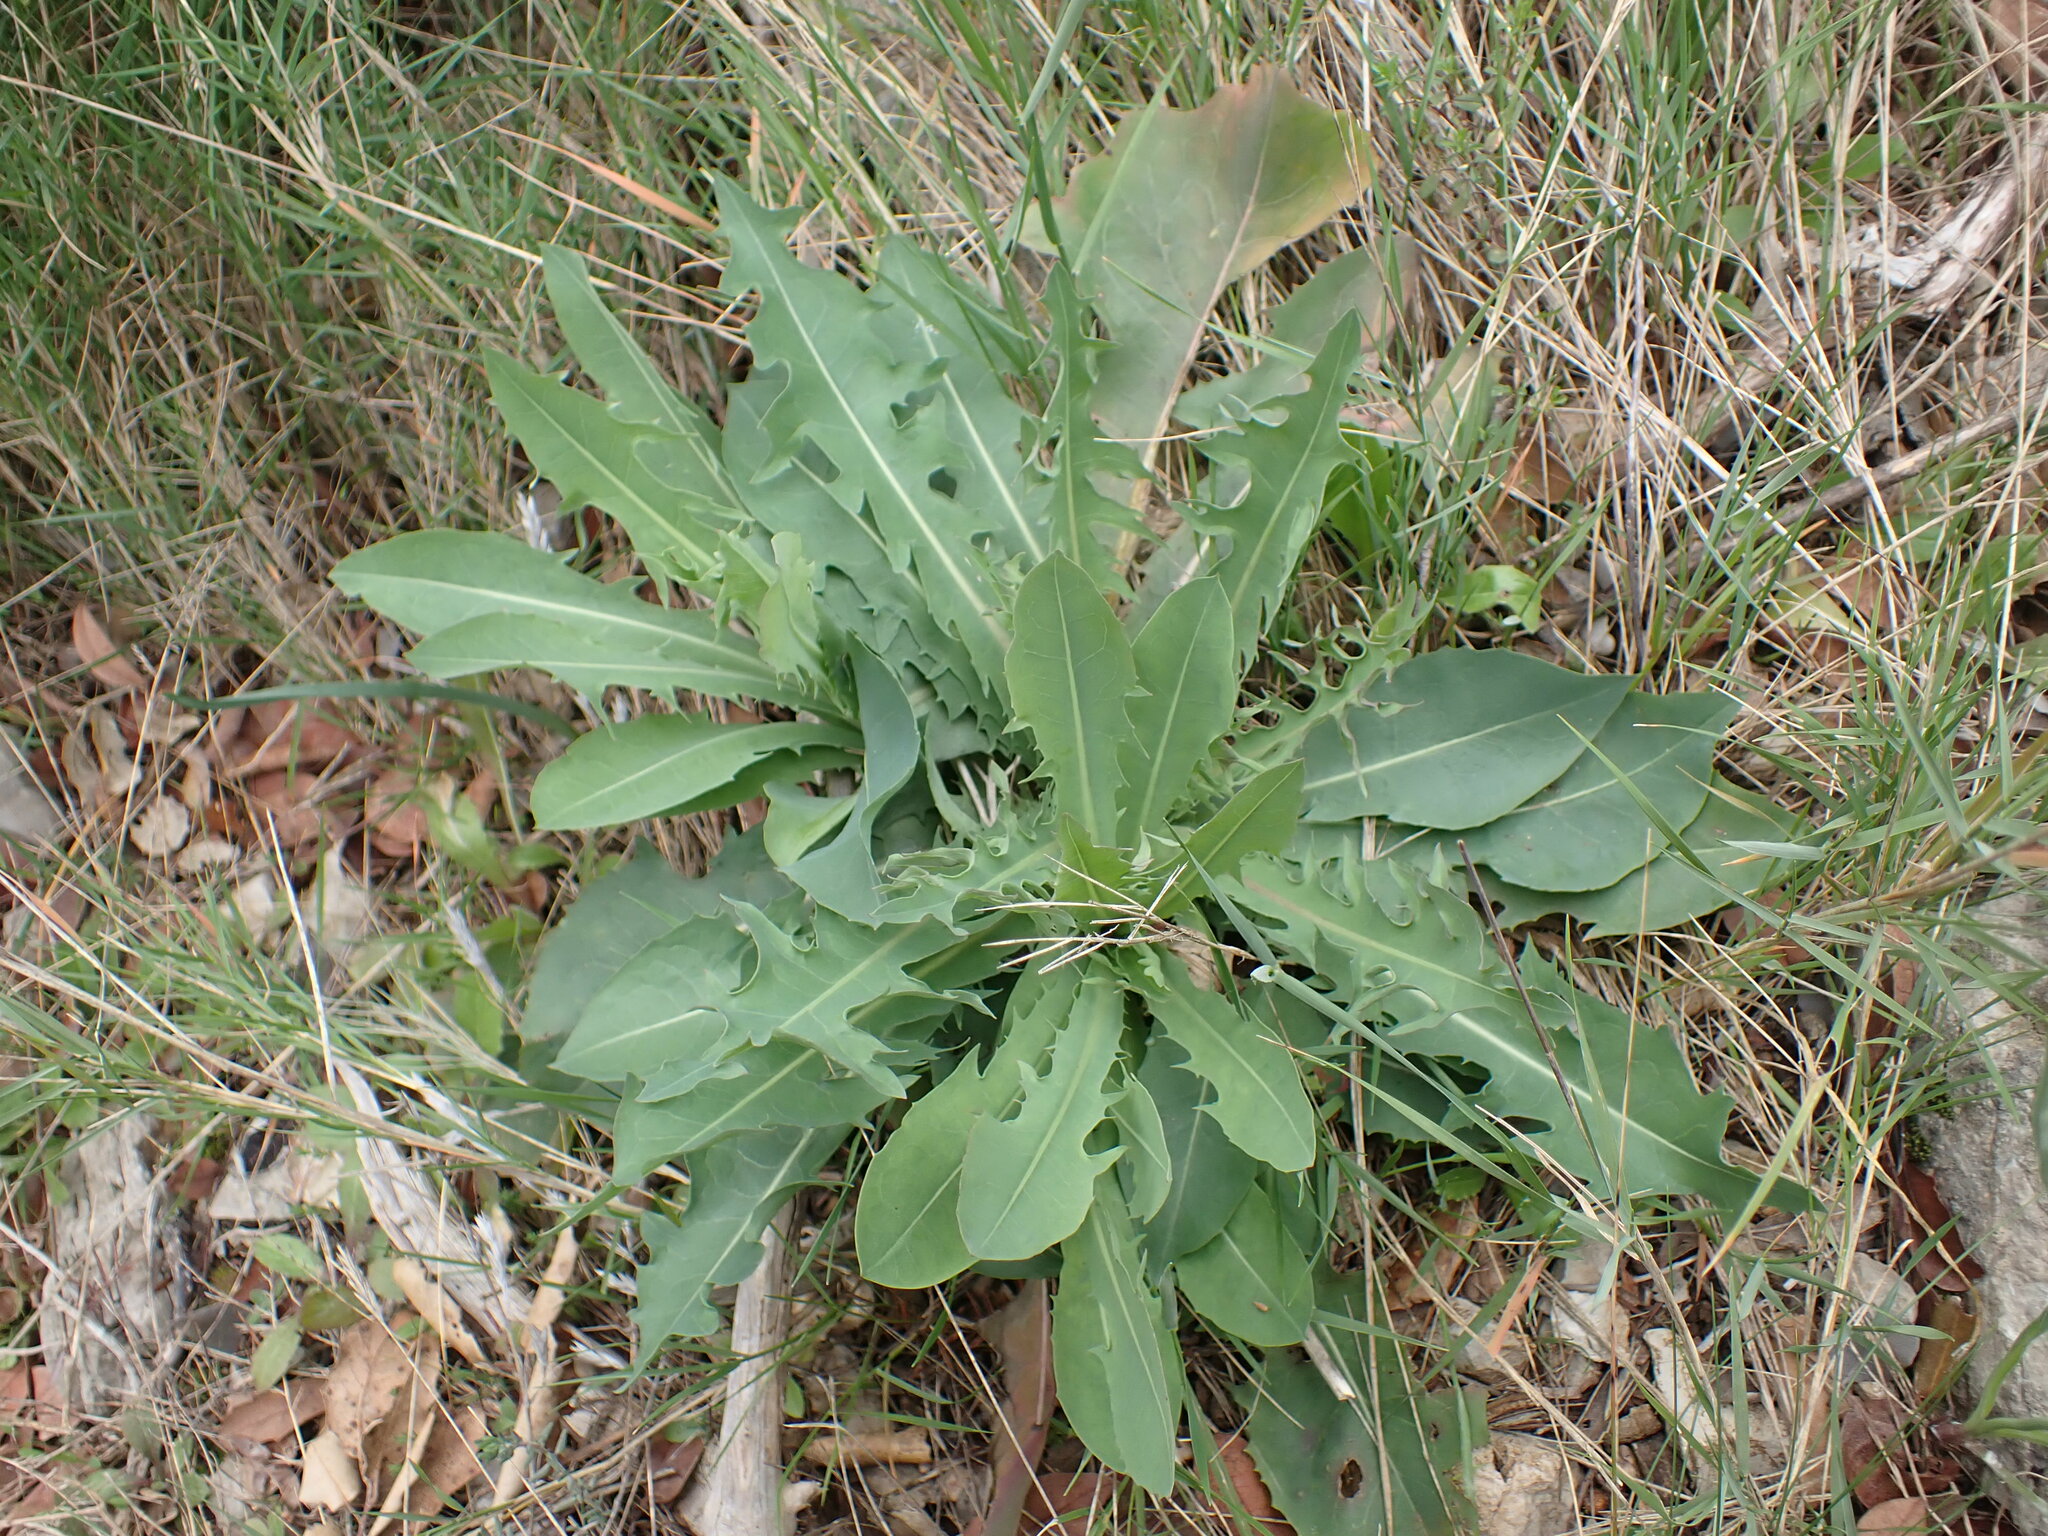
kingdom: Plantae
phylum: Tracheophyta
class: Magnoliopsida
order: Asterales
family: Asteraceae
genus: Lactuca
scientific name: Lactuca perennis
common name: Mountain lettuce
